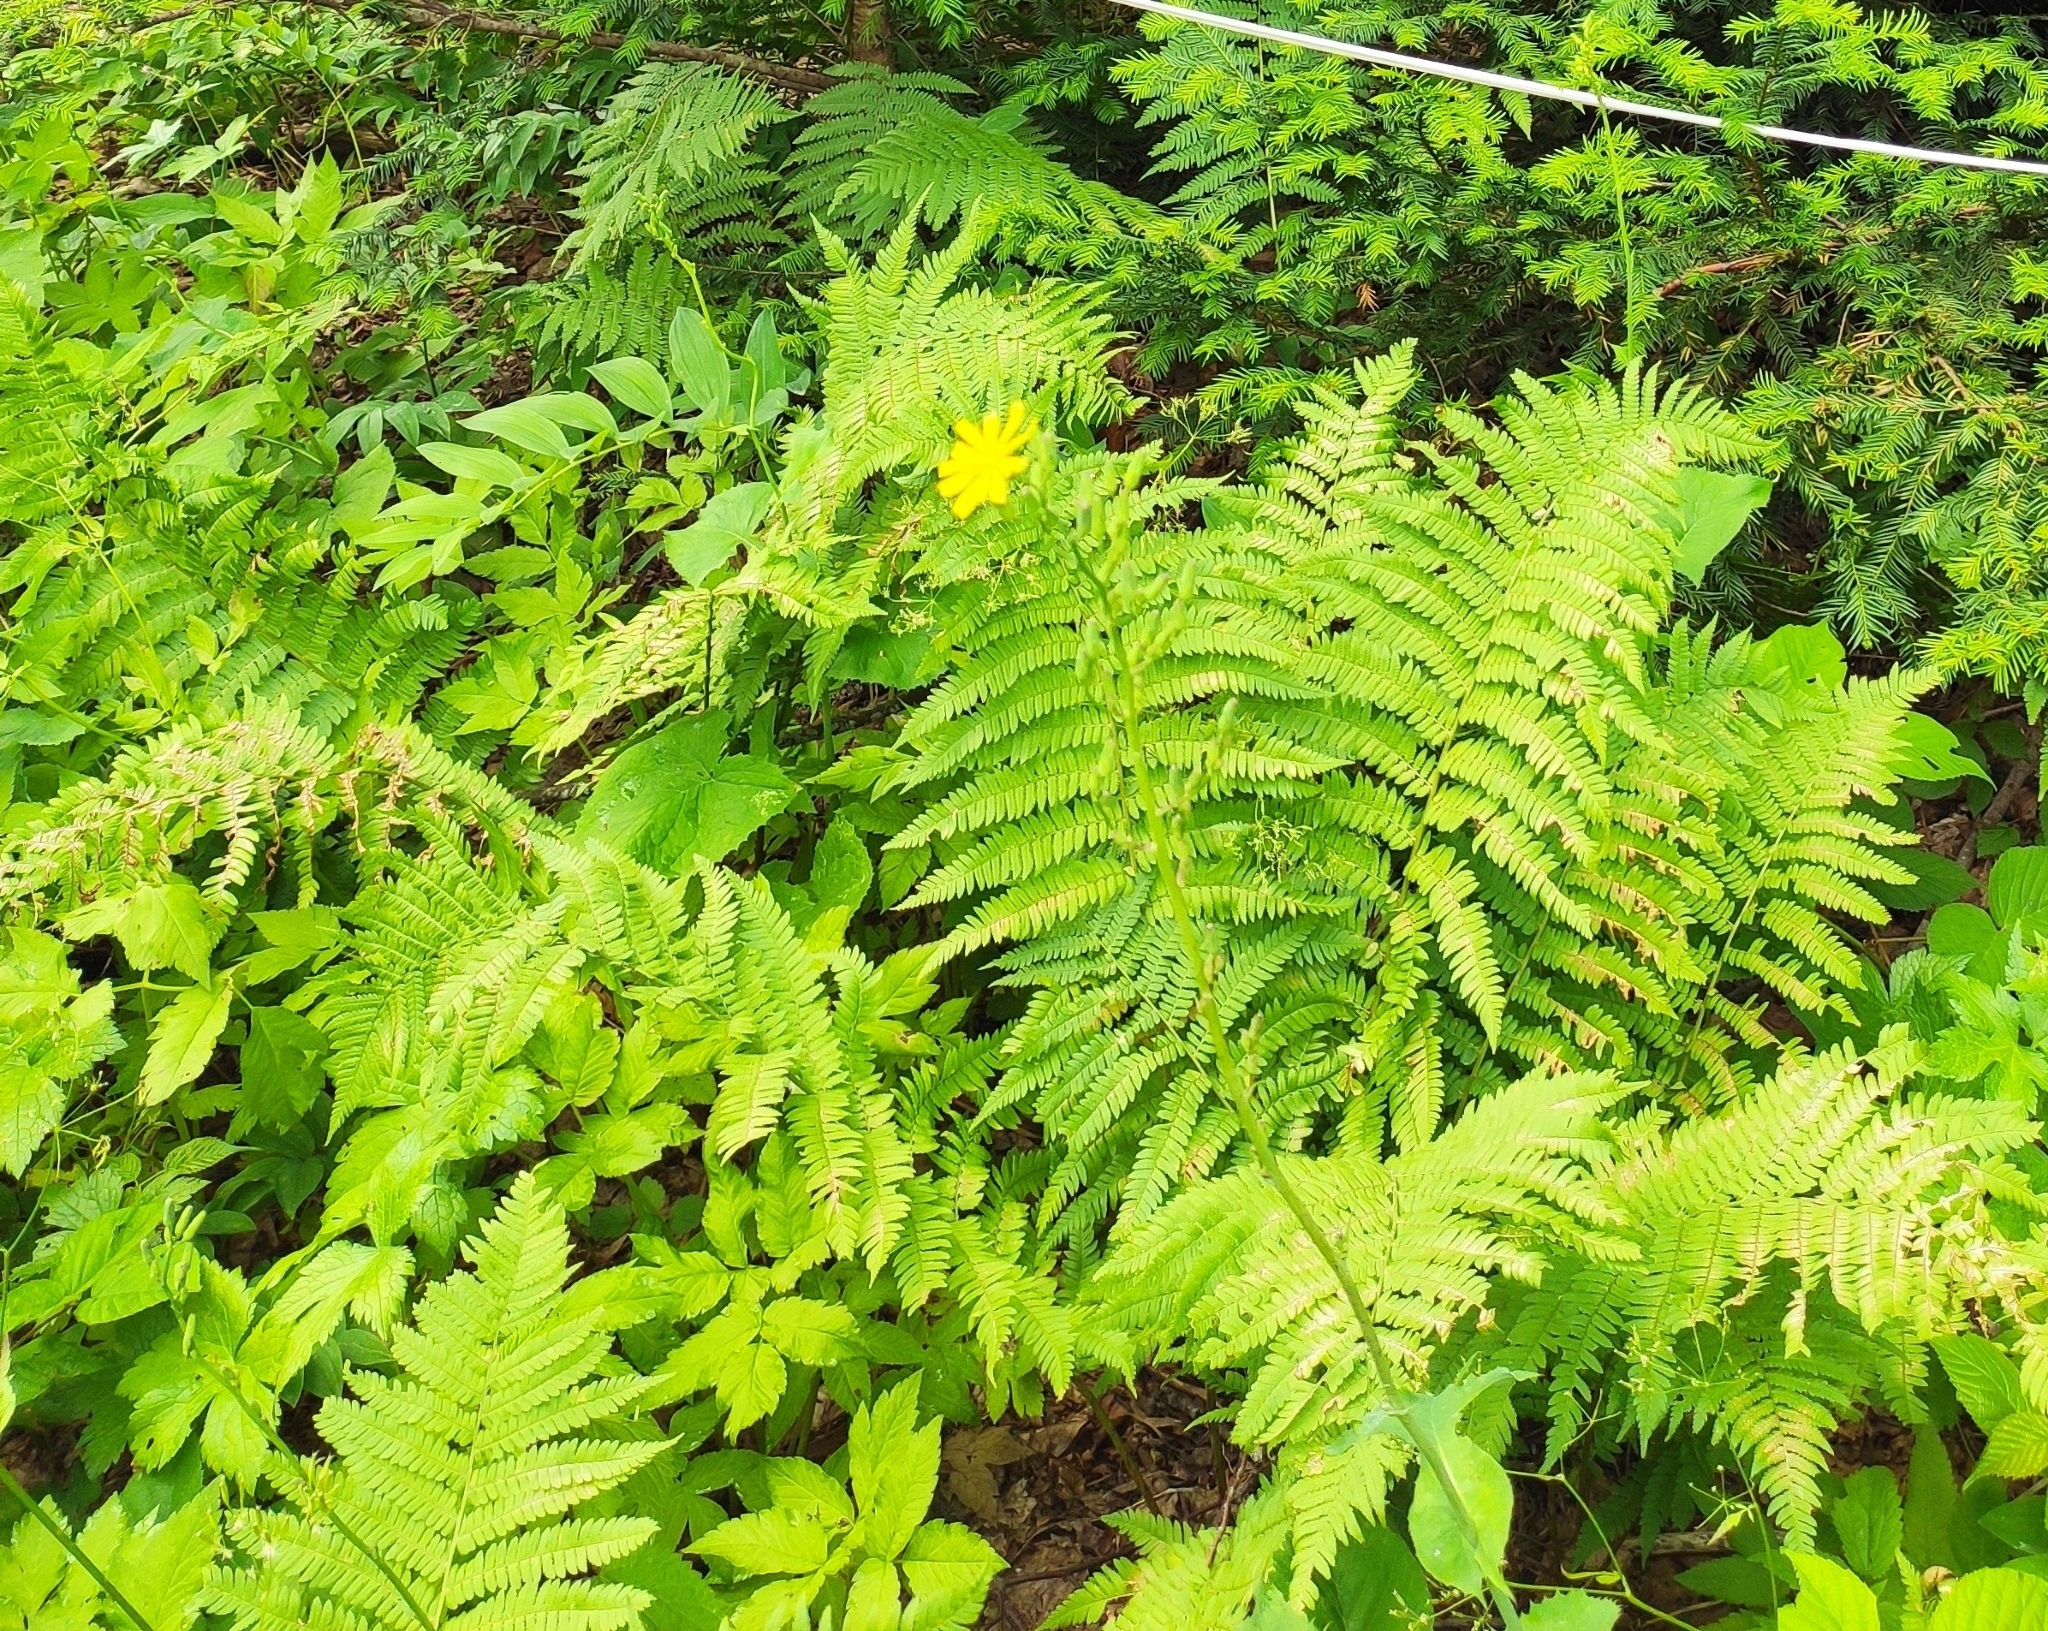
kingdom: Plantae
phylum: Tracheophyta
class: Polypodiopsida
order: Polypodiales
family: Athyriaceae
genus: Athyrium
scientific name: Athyrium filix-femina
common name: Lady fern
